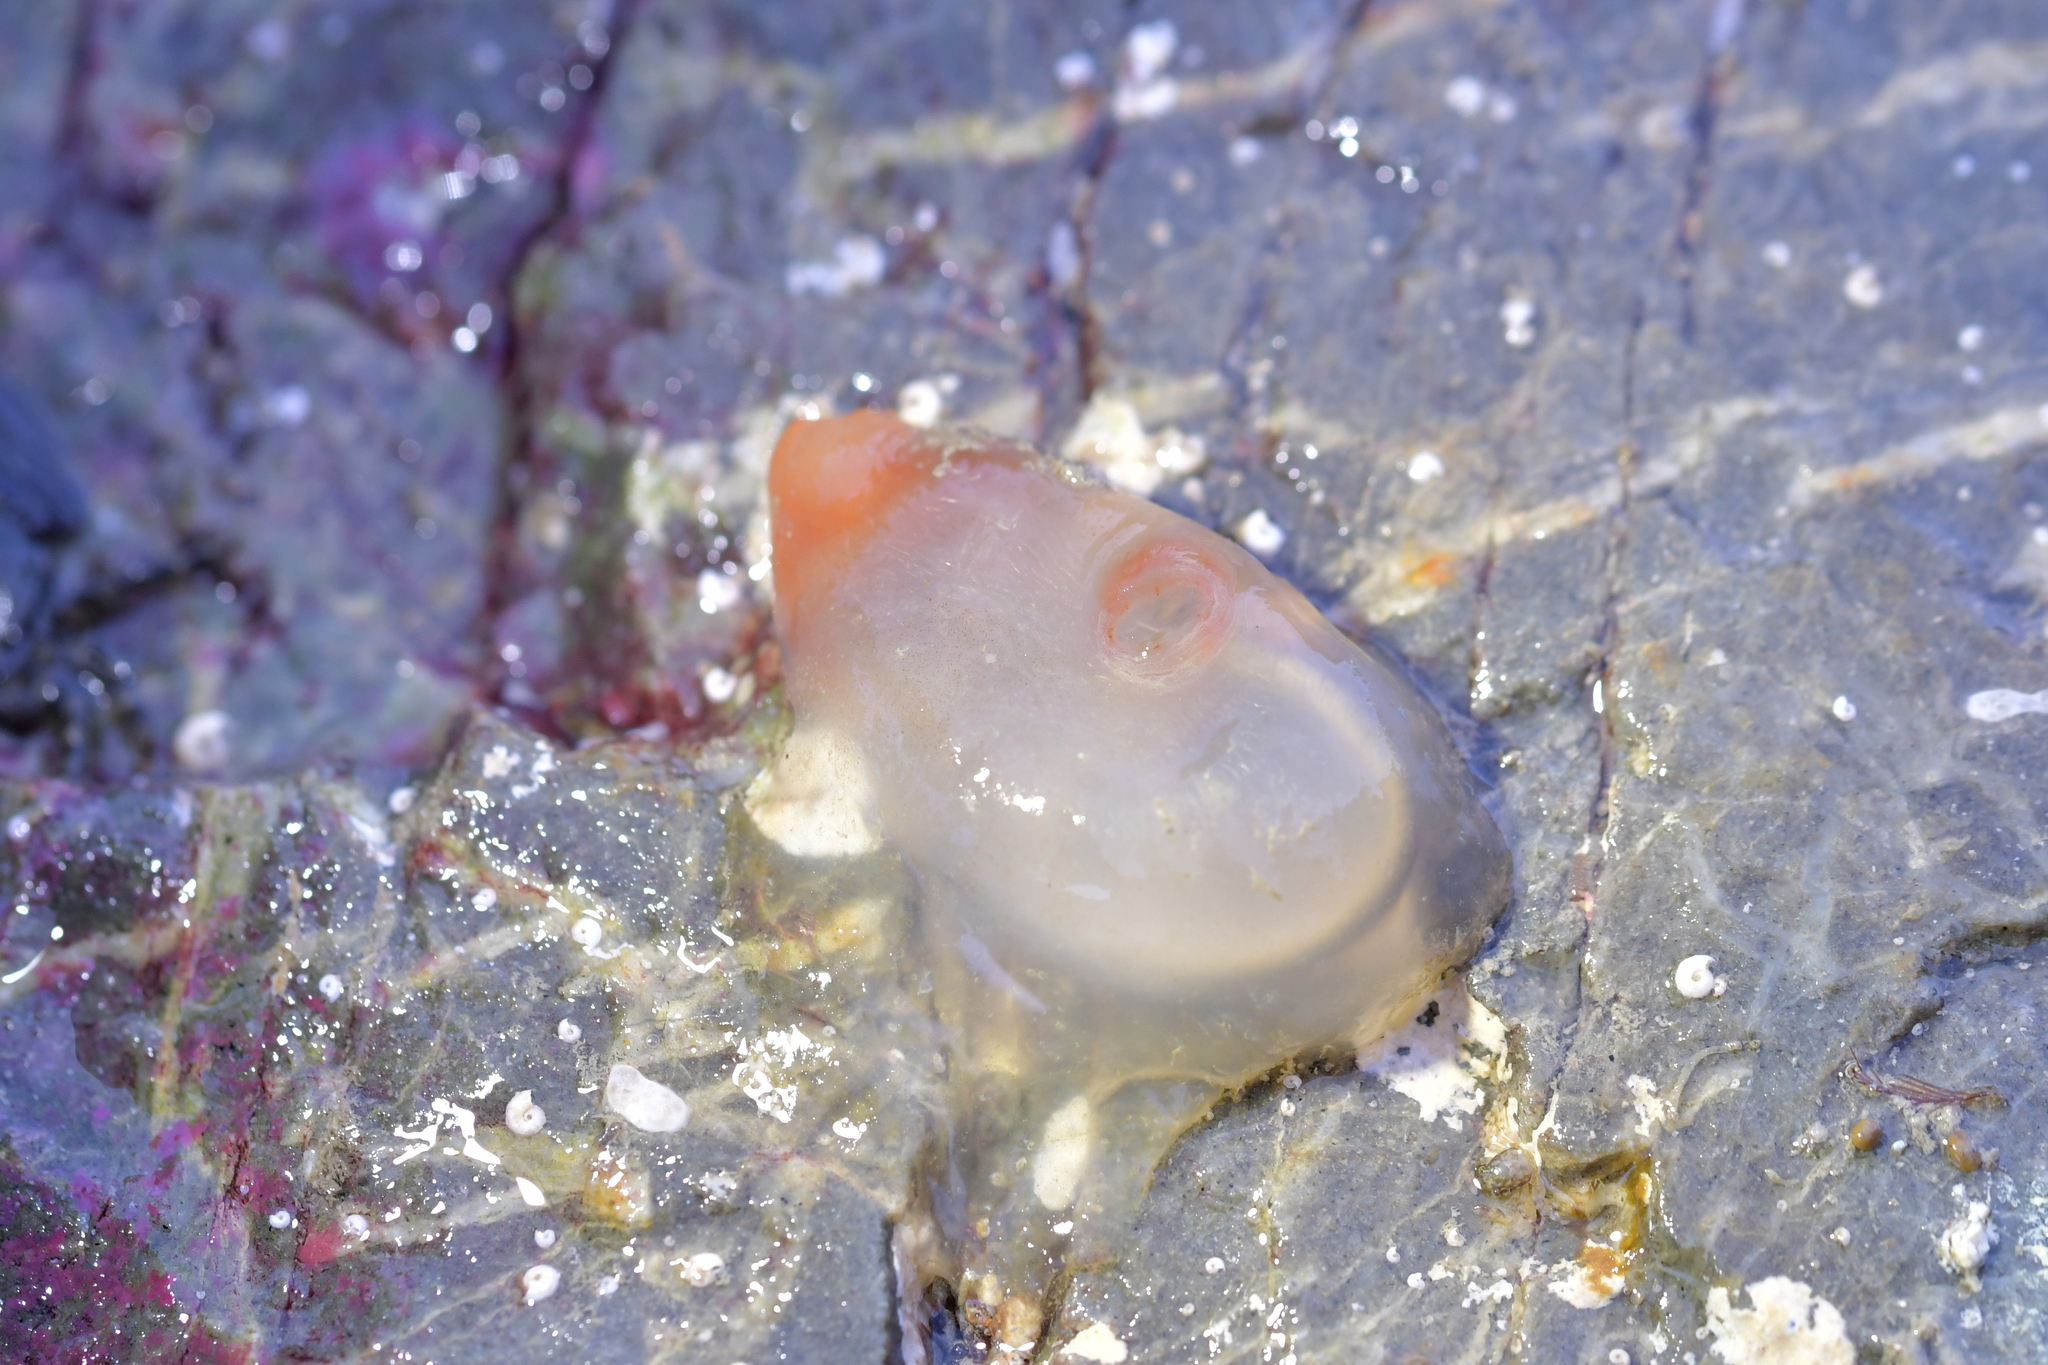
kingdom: Animalia
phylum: Chordata
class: Ascidiacea
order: Phlebobranchia
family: Corellidae
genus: Corella
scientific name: Corella eumyota
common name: Orange-tipped sea squirt
